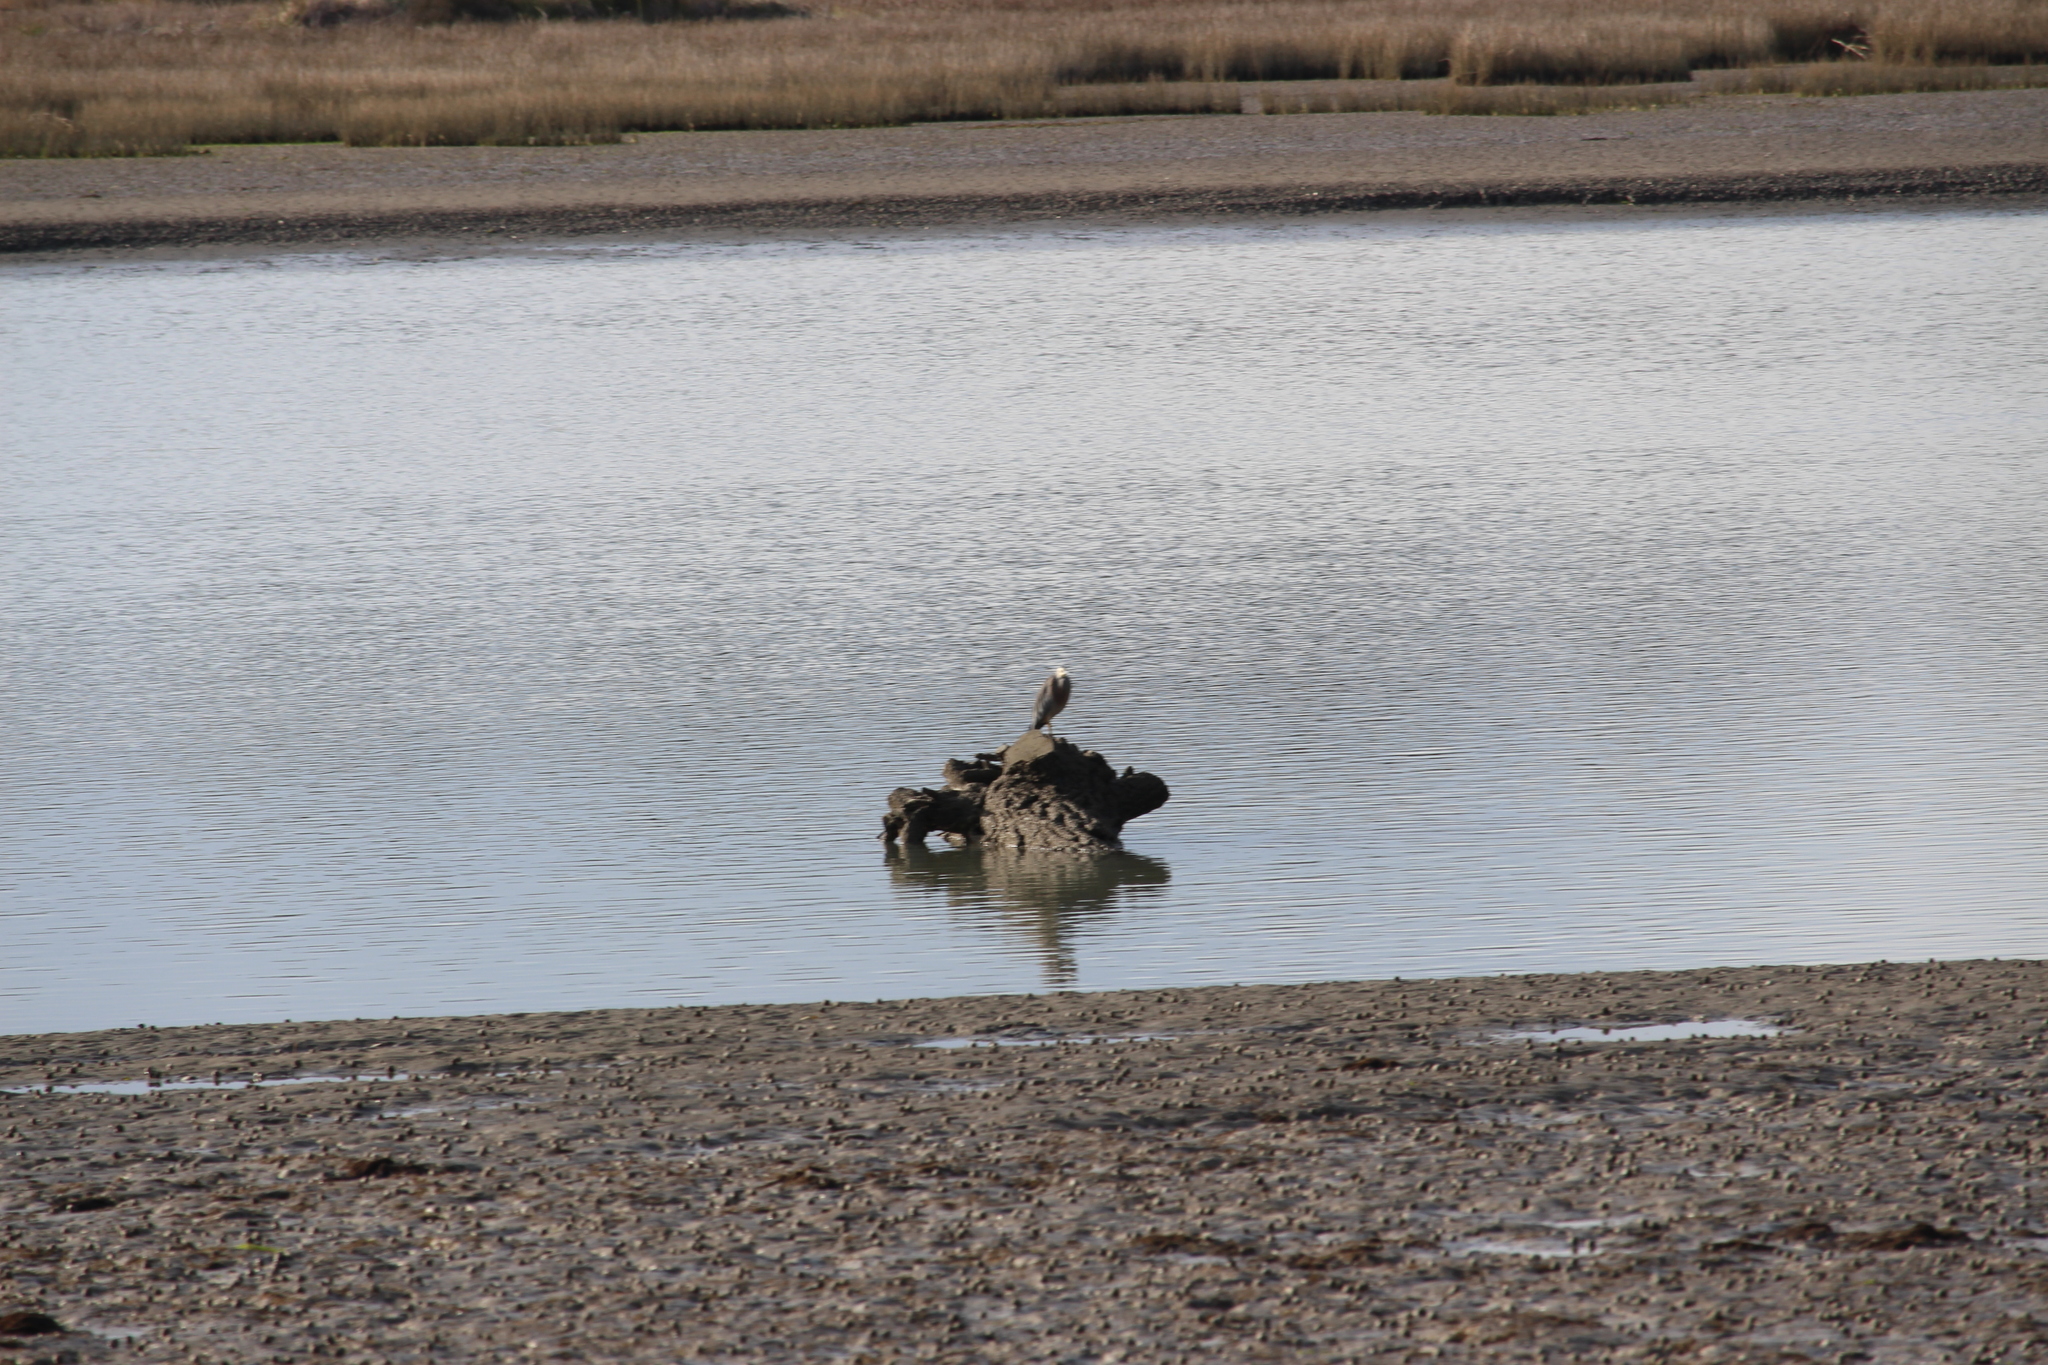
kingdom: Animalia
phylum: Chordata
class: Aves
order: Pelecaniformes
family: Ardeidae
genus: Egretta
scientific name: Egretta novaehollandiae
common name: White-faced heron
